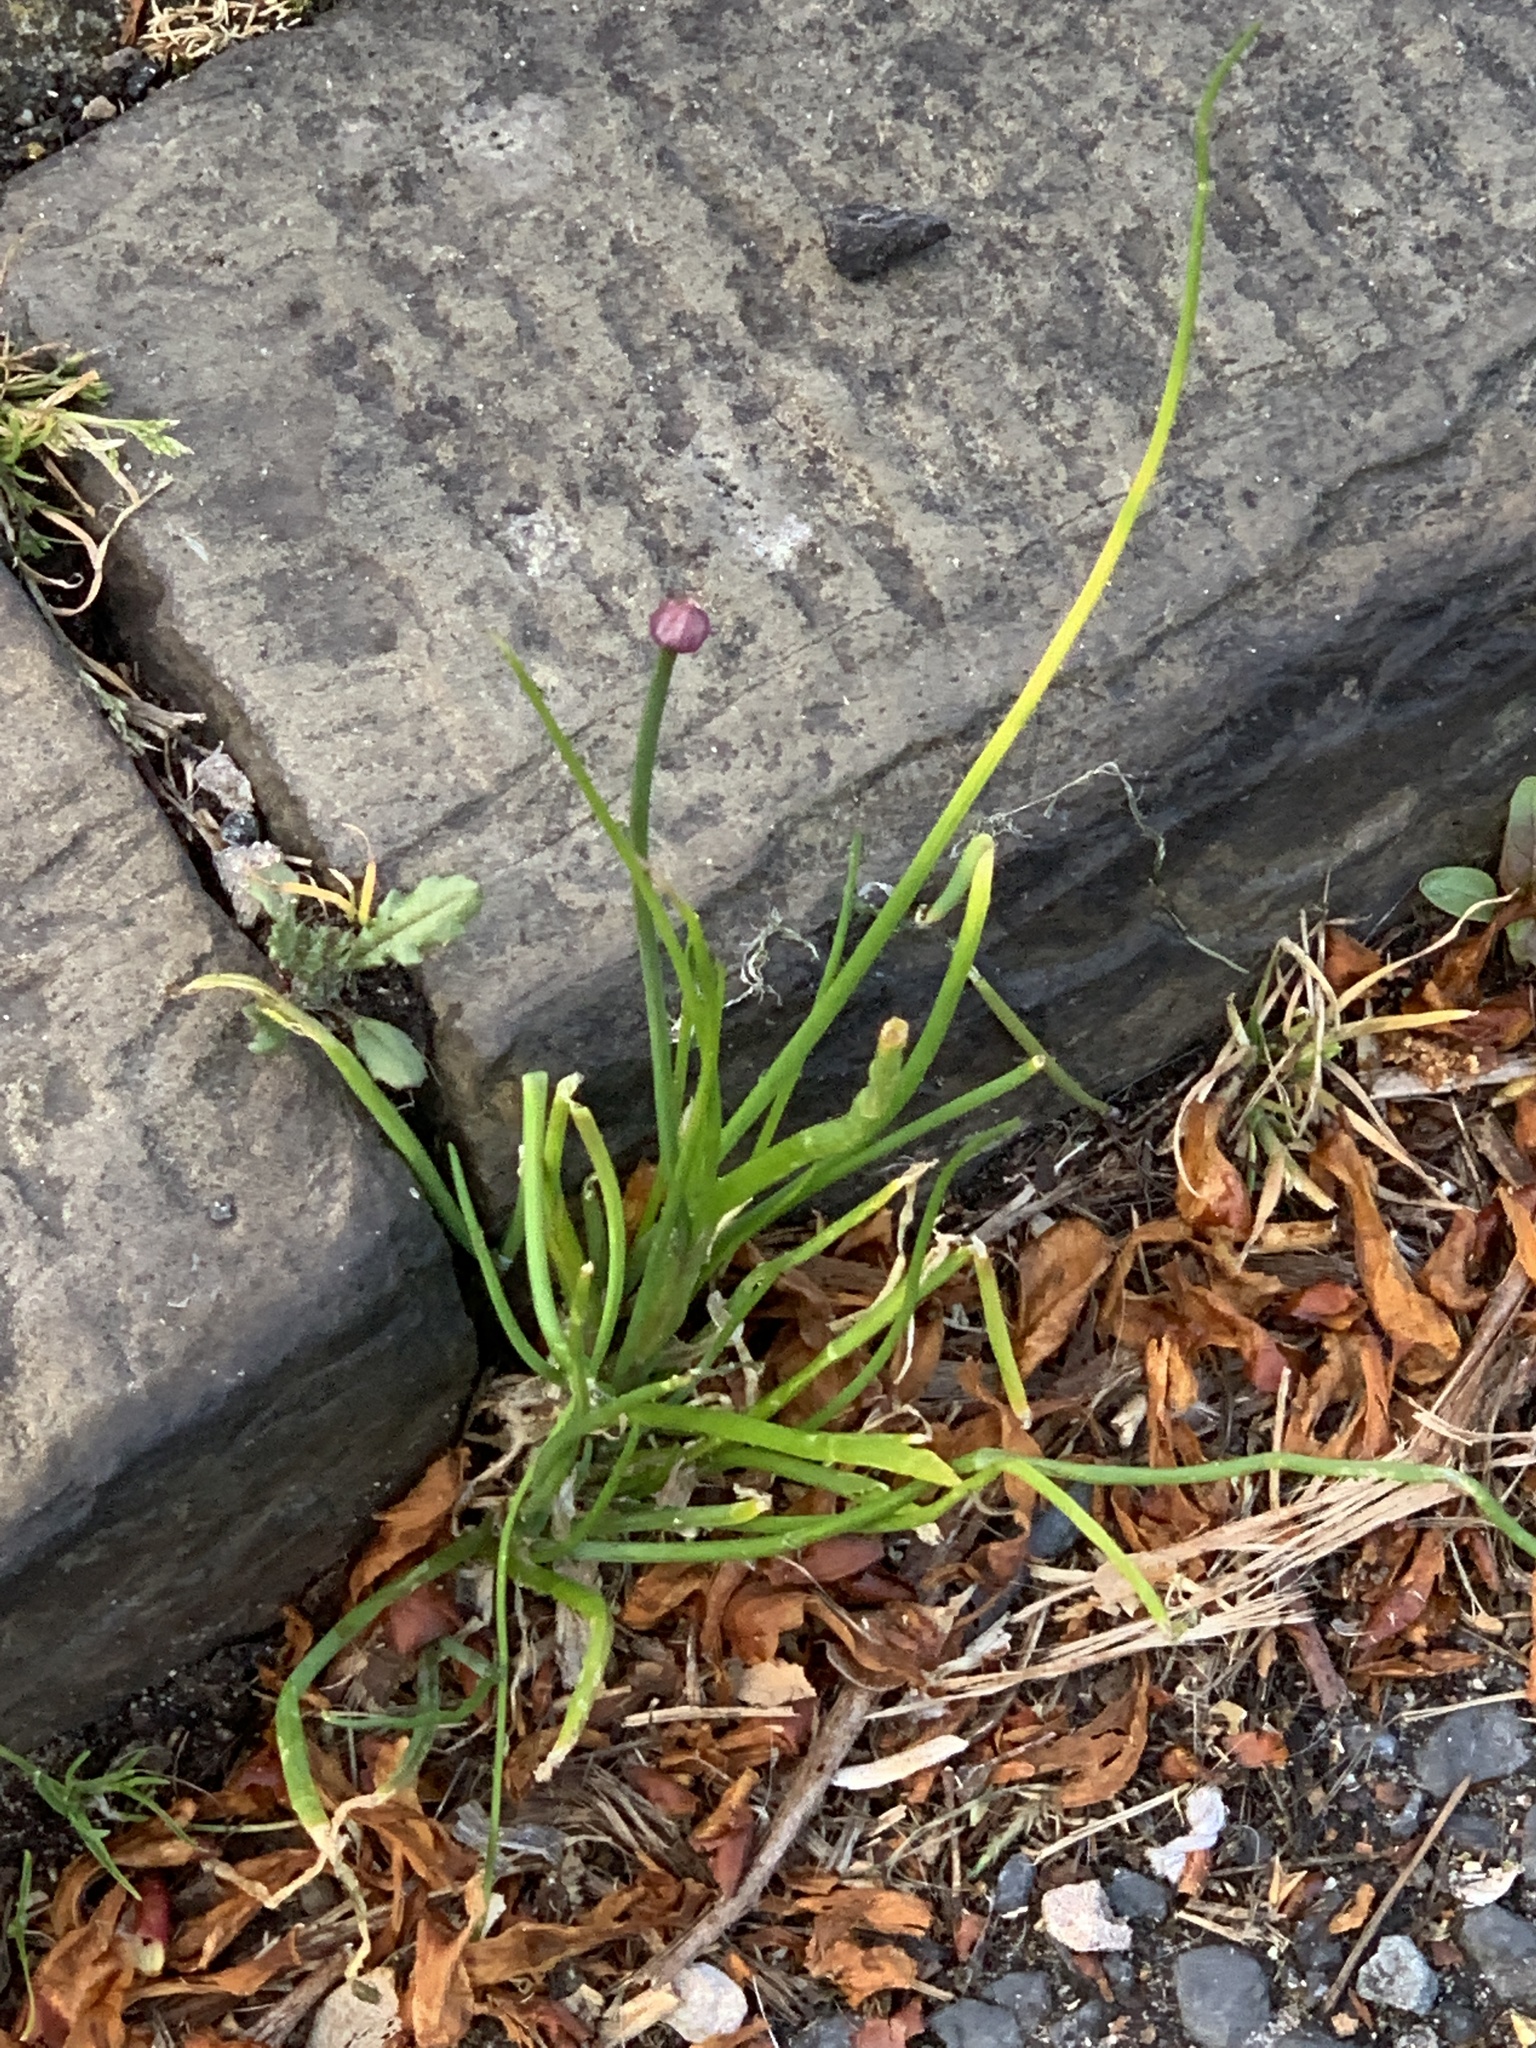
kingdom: Plantae
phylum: Tracheophyta
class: Liliopsida
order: Asparagales
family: Amaryllidaceae
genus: Allium
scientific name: Allium schoenoprasum
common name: Chives
